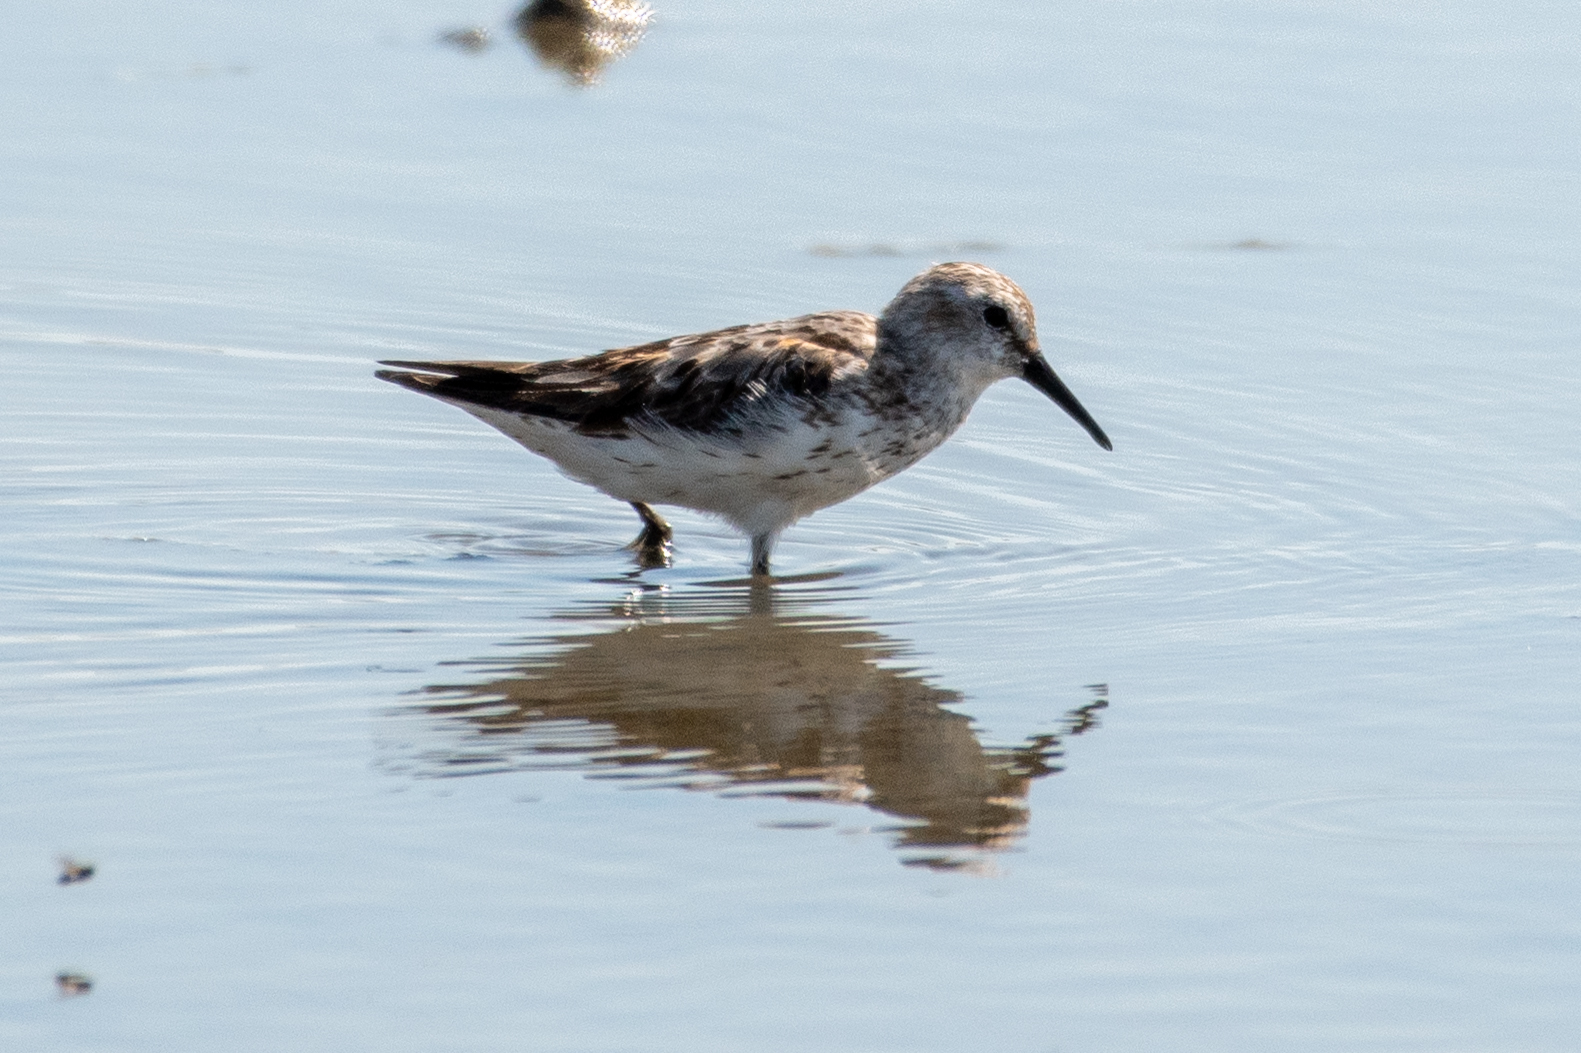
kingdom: Animalia
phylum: Chordata
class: Aves
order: Charadriiformes
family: Scolopacidae
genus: Calidris
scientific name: Calidris minutilla
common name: Least sandpiper
